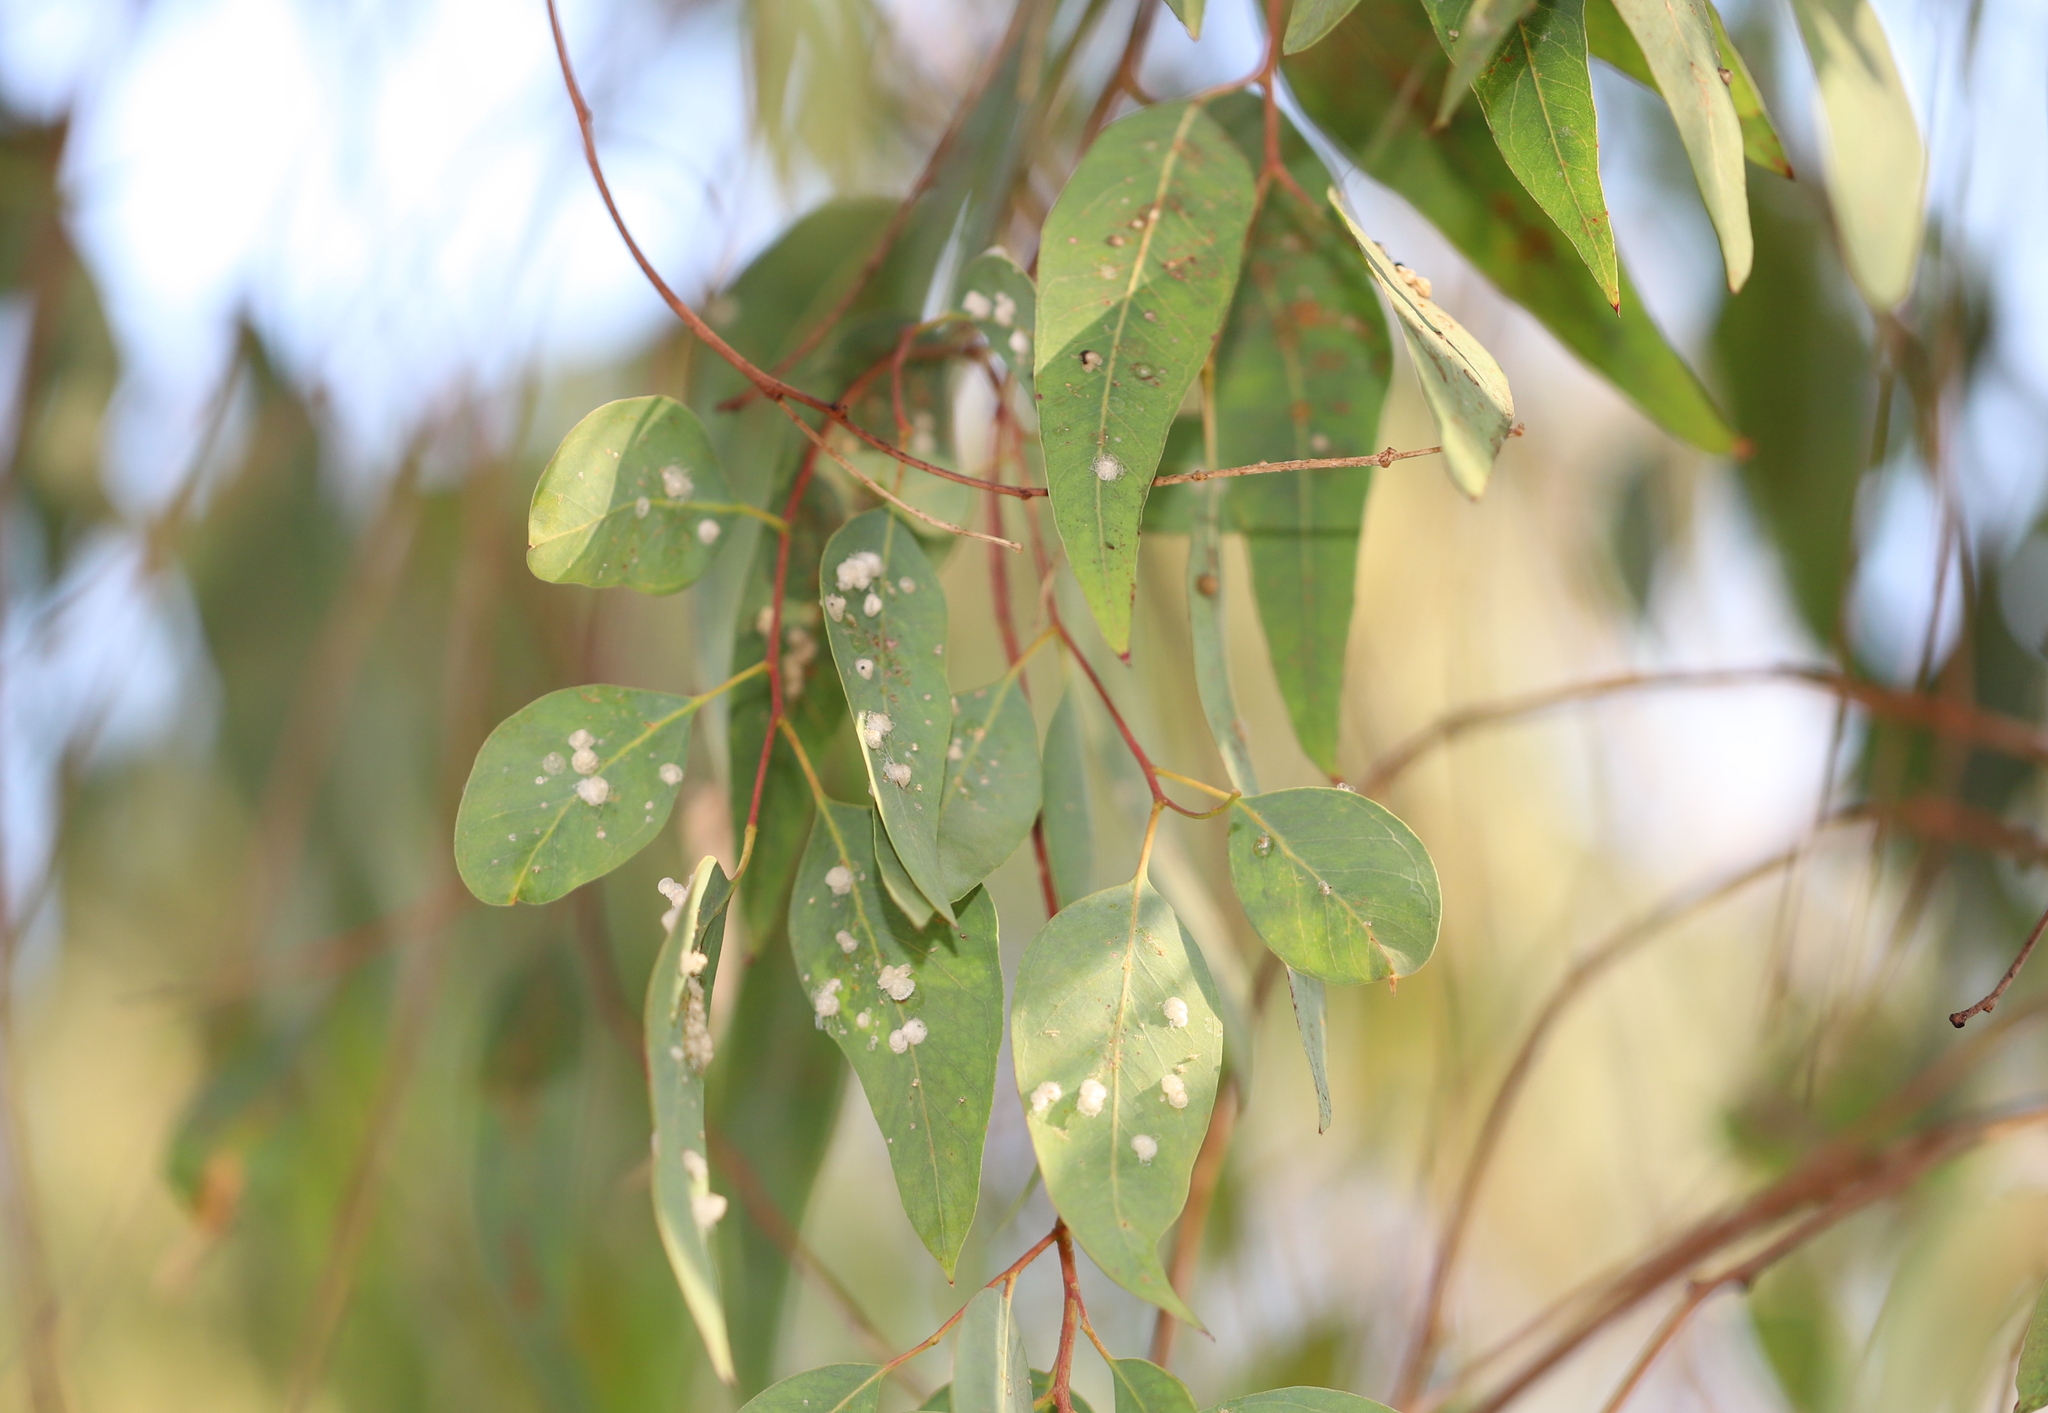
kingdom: Plantae
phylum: Tracheophyta
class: Magnoliopsida
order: Myrtales
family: Myrtaceae
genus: Eucalyptus
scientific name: Eucalyptus camaldulensis
